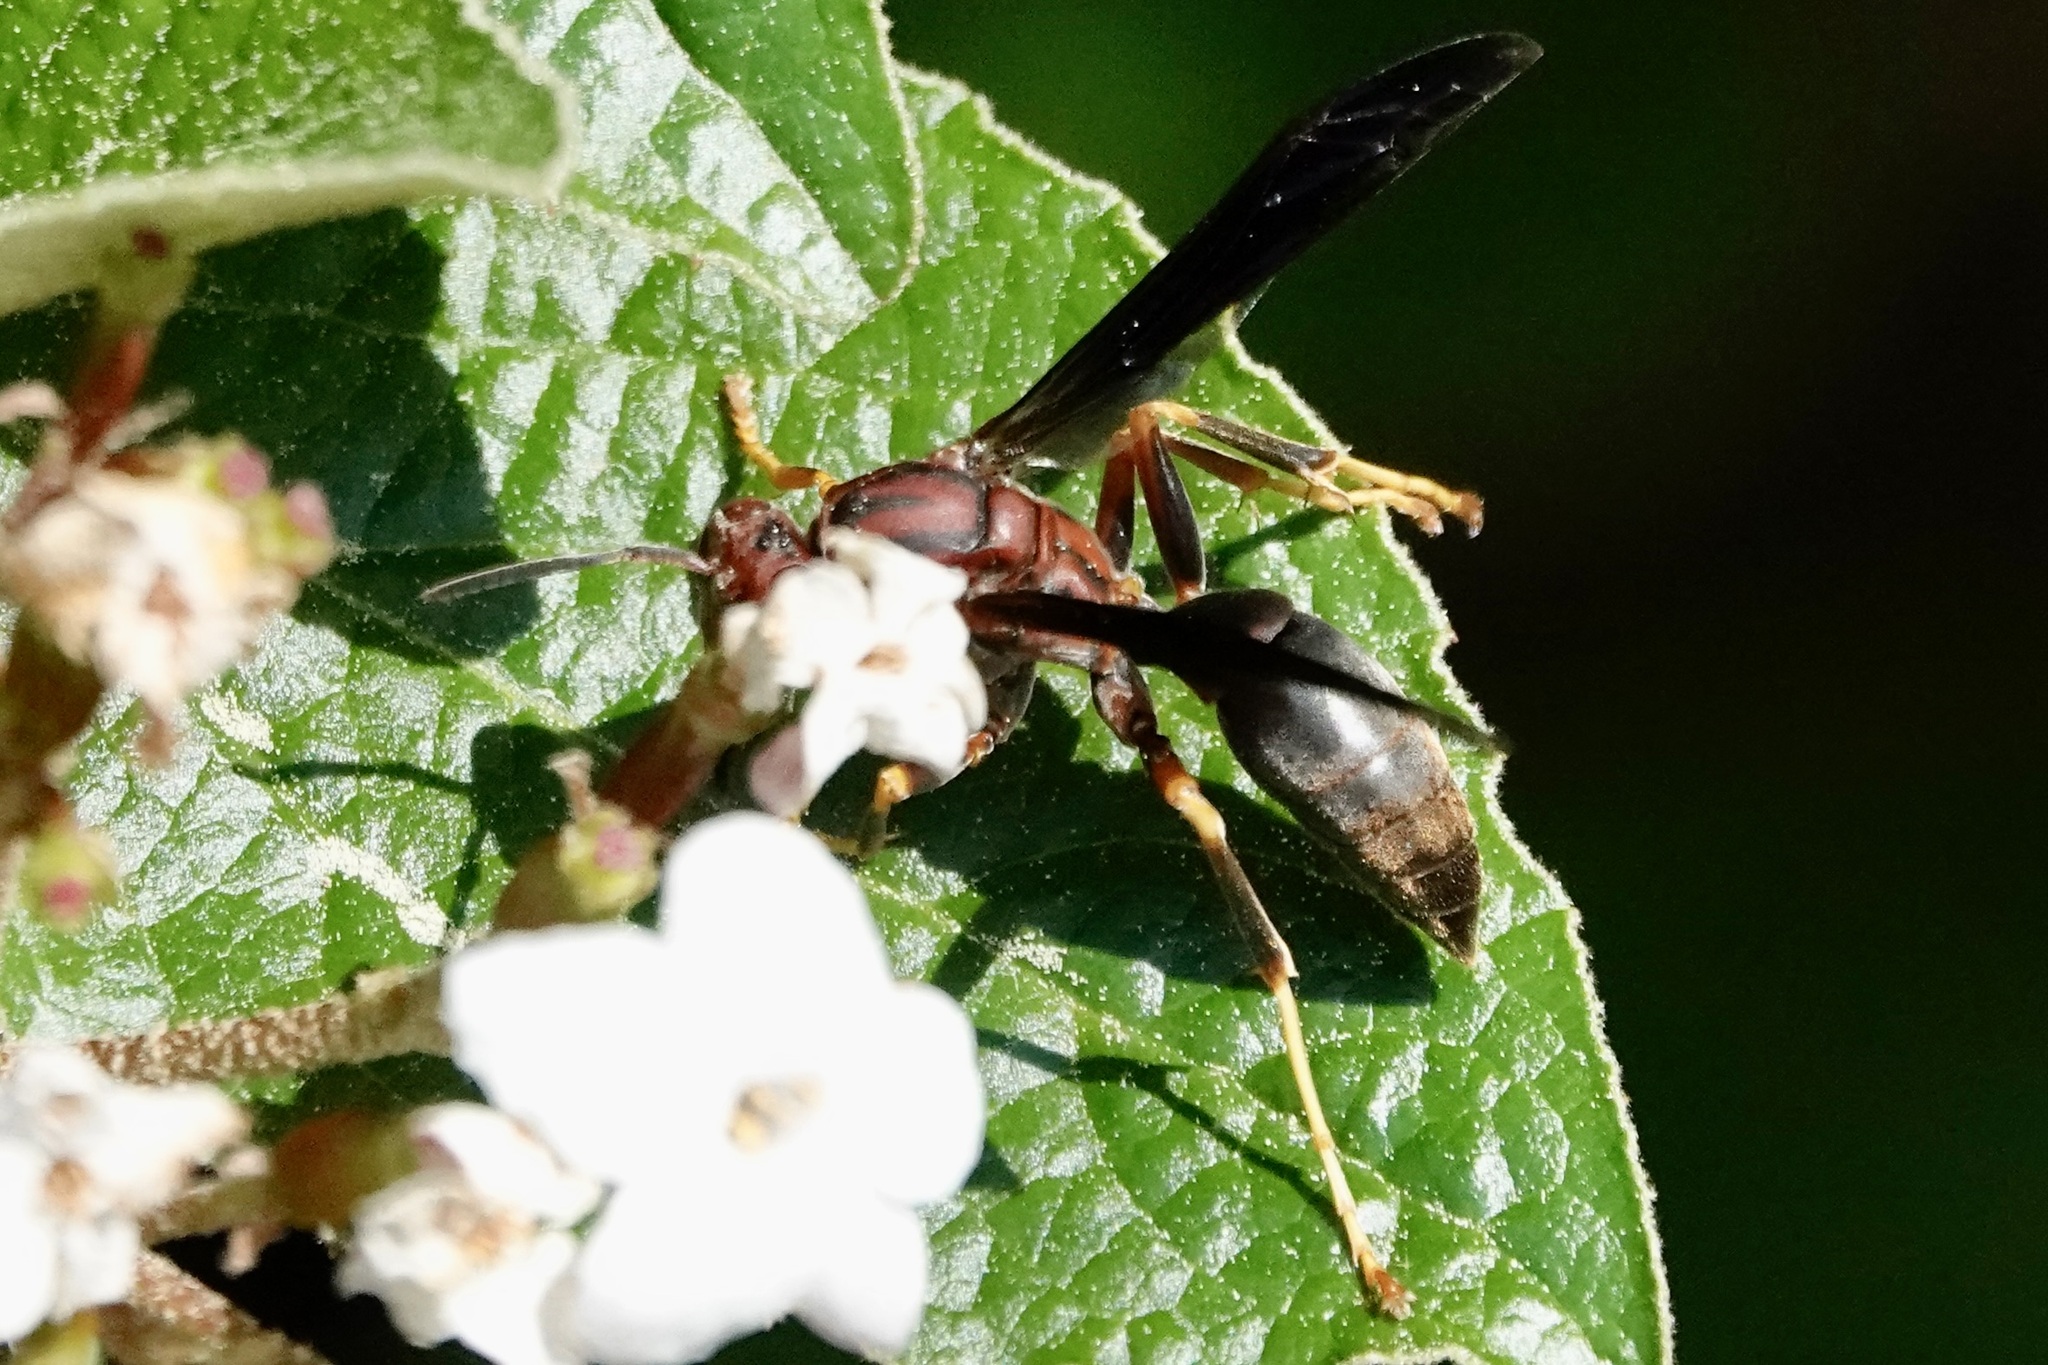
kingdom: Animalia
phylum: Arthropoda
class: Insecta
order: Hymenoptera
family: Eumenidae
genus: Polistes
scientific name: Polistes metricus
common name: Metric paper wasp
